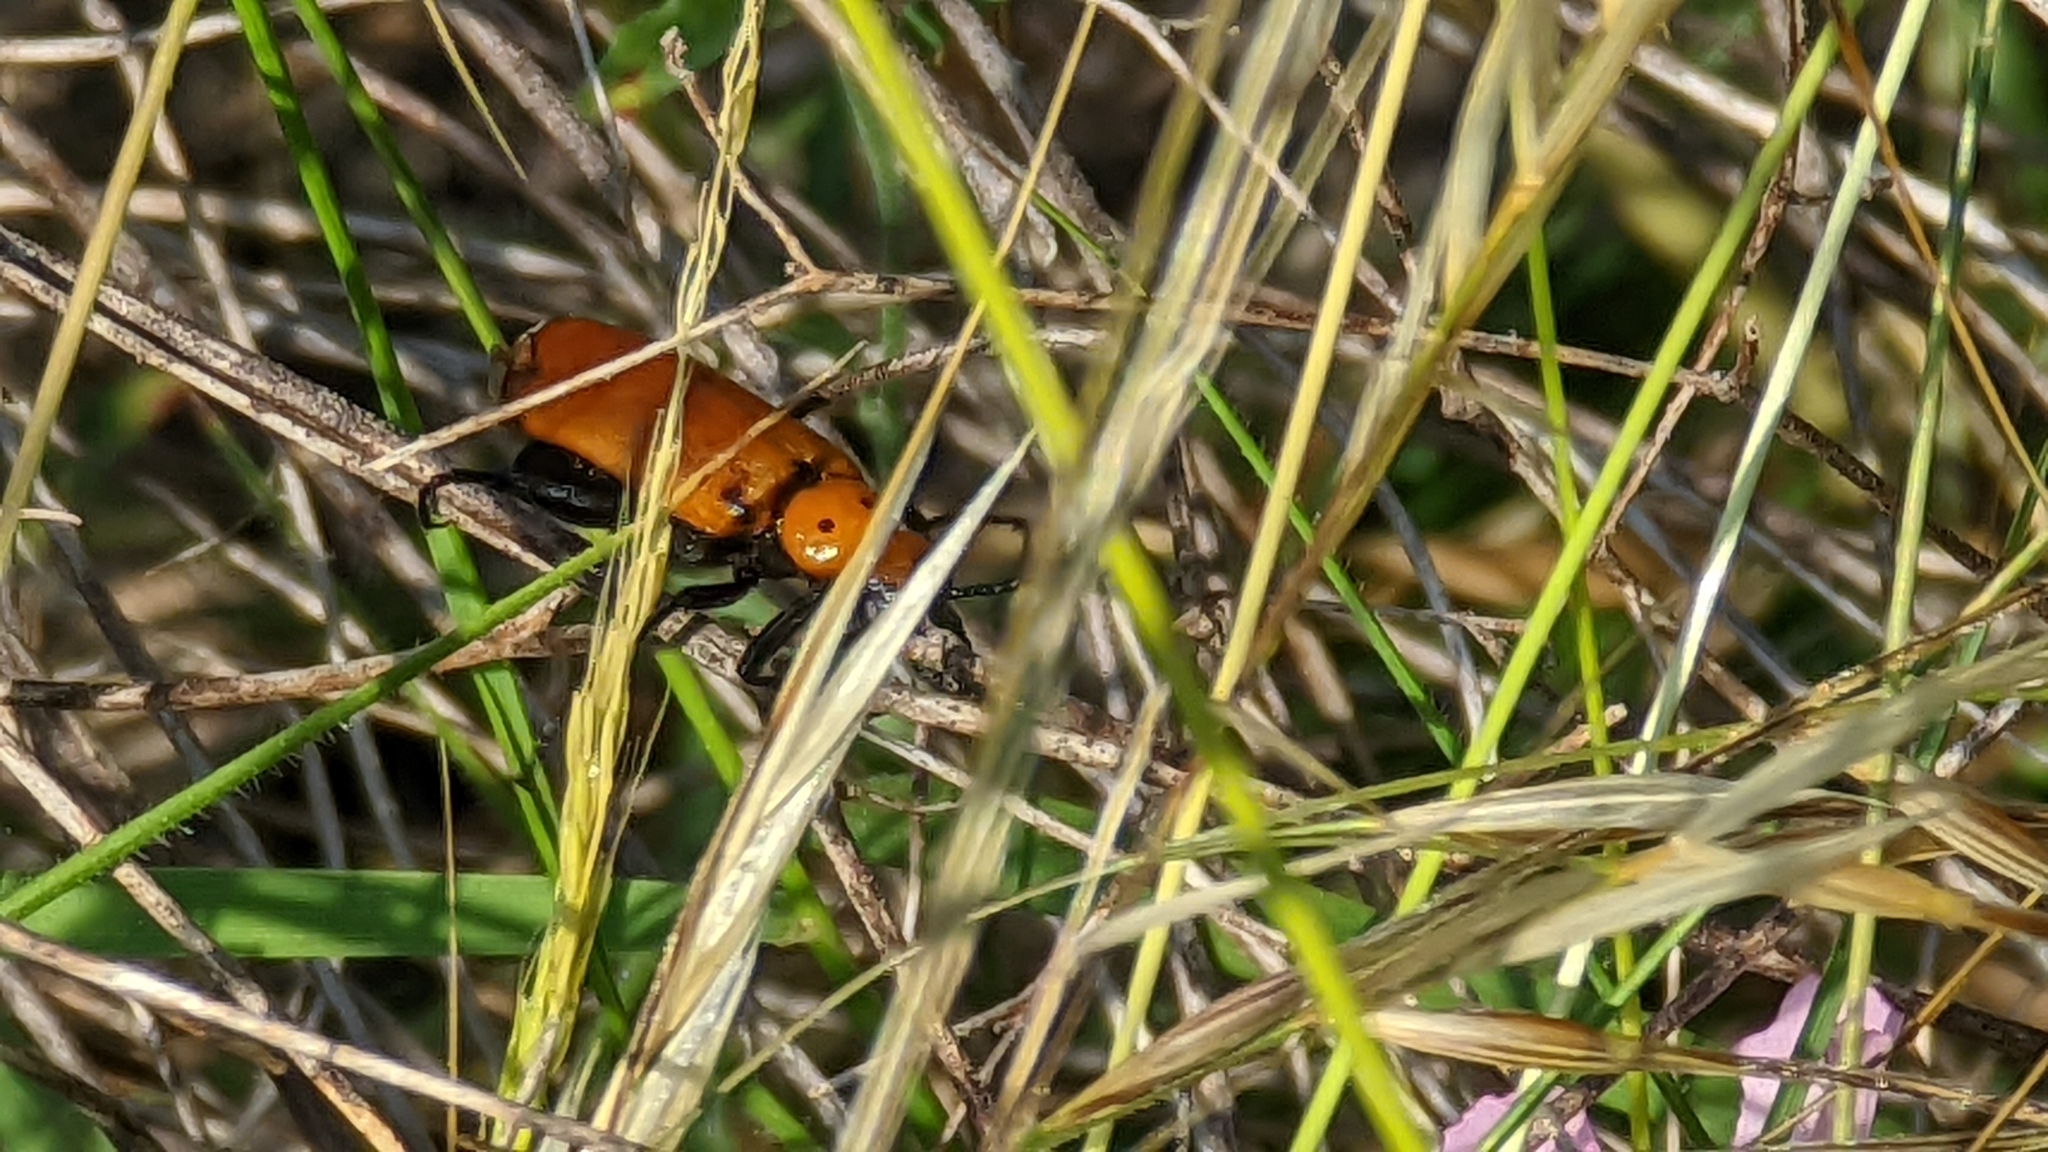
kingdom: Animalia
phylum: Arthropoda
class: Insecta
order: Coleoptera
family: Meloidae
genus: Lytta
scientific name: Lytta lecontei
